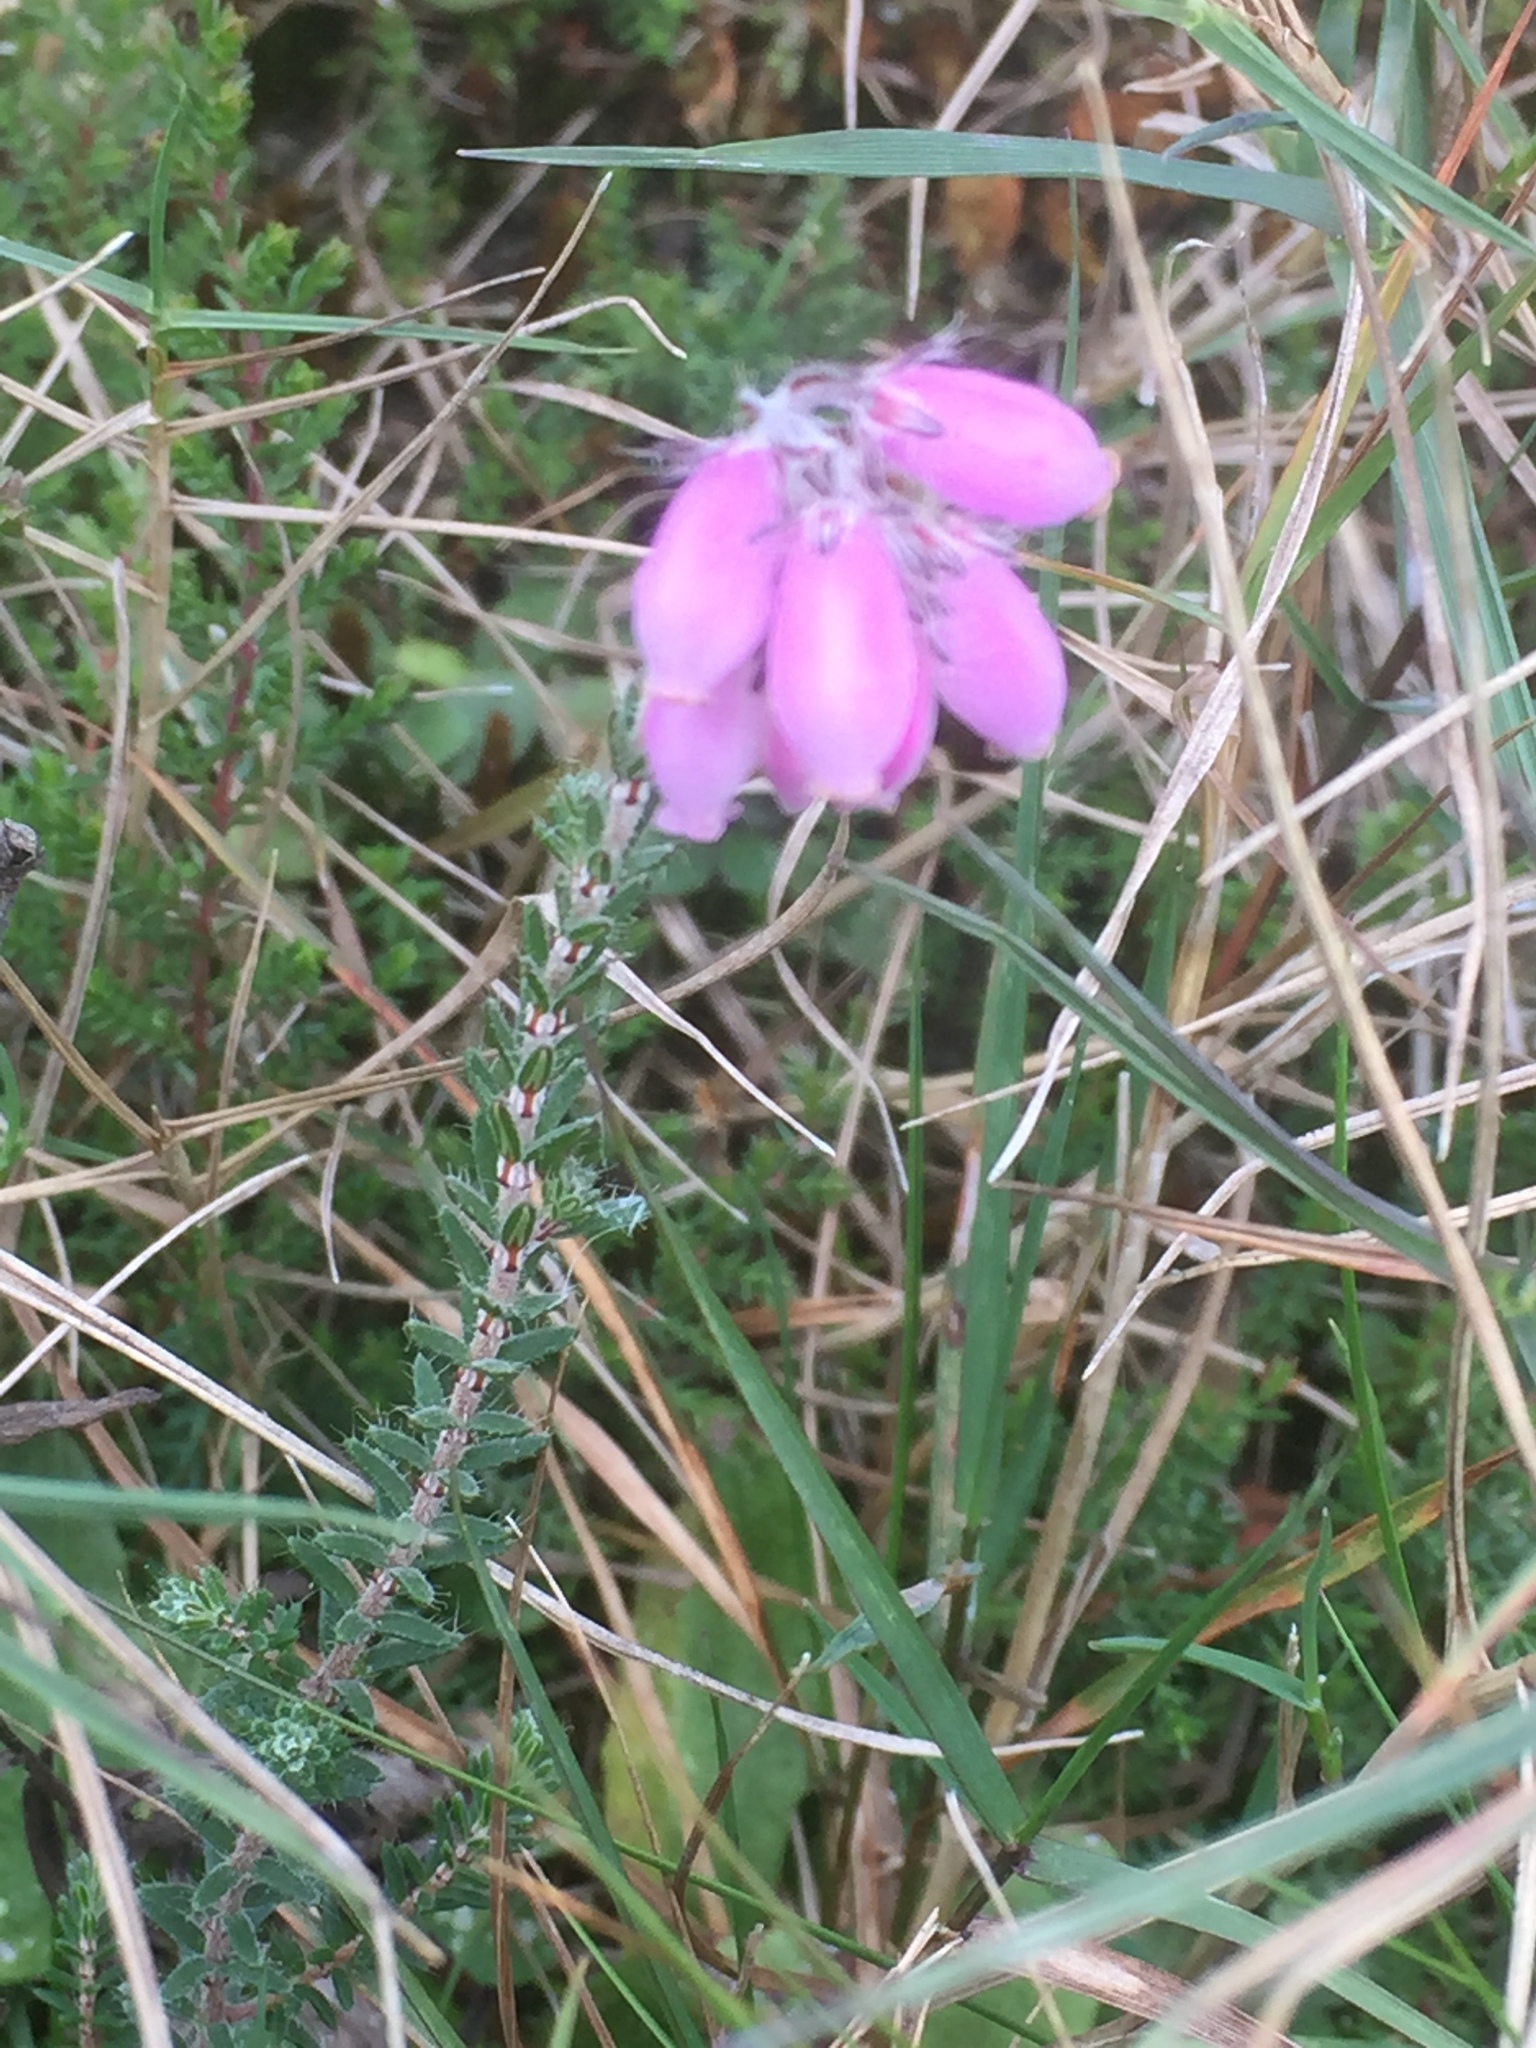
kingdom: Plantae
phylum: Tracheophyta
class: Magnoliopsida
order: Ericales
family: Ericaceae
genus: Erica
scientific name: Erica tetralix
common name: Cross-leaved heath
